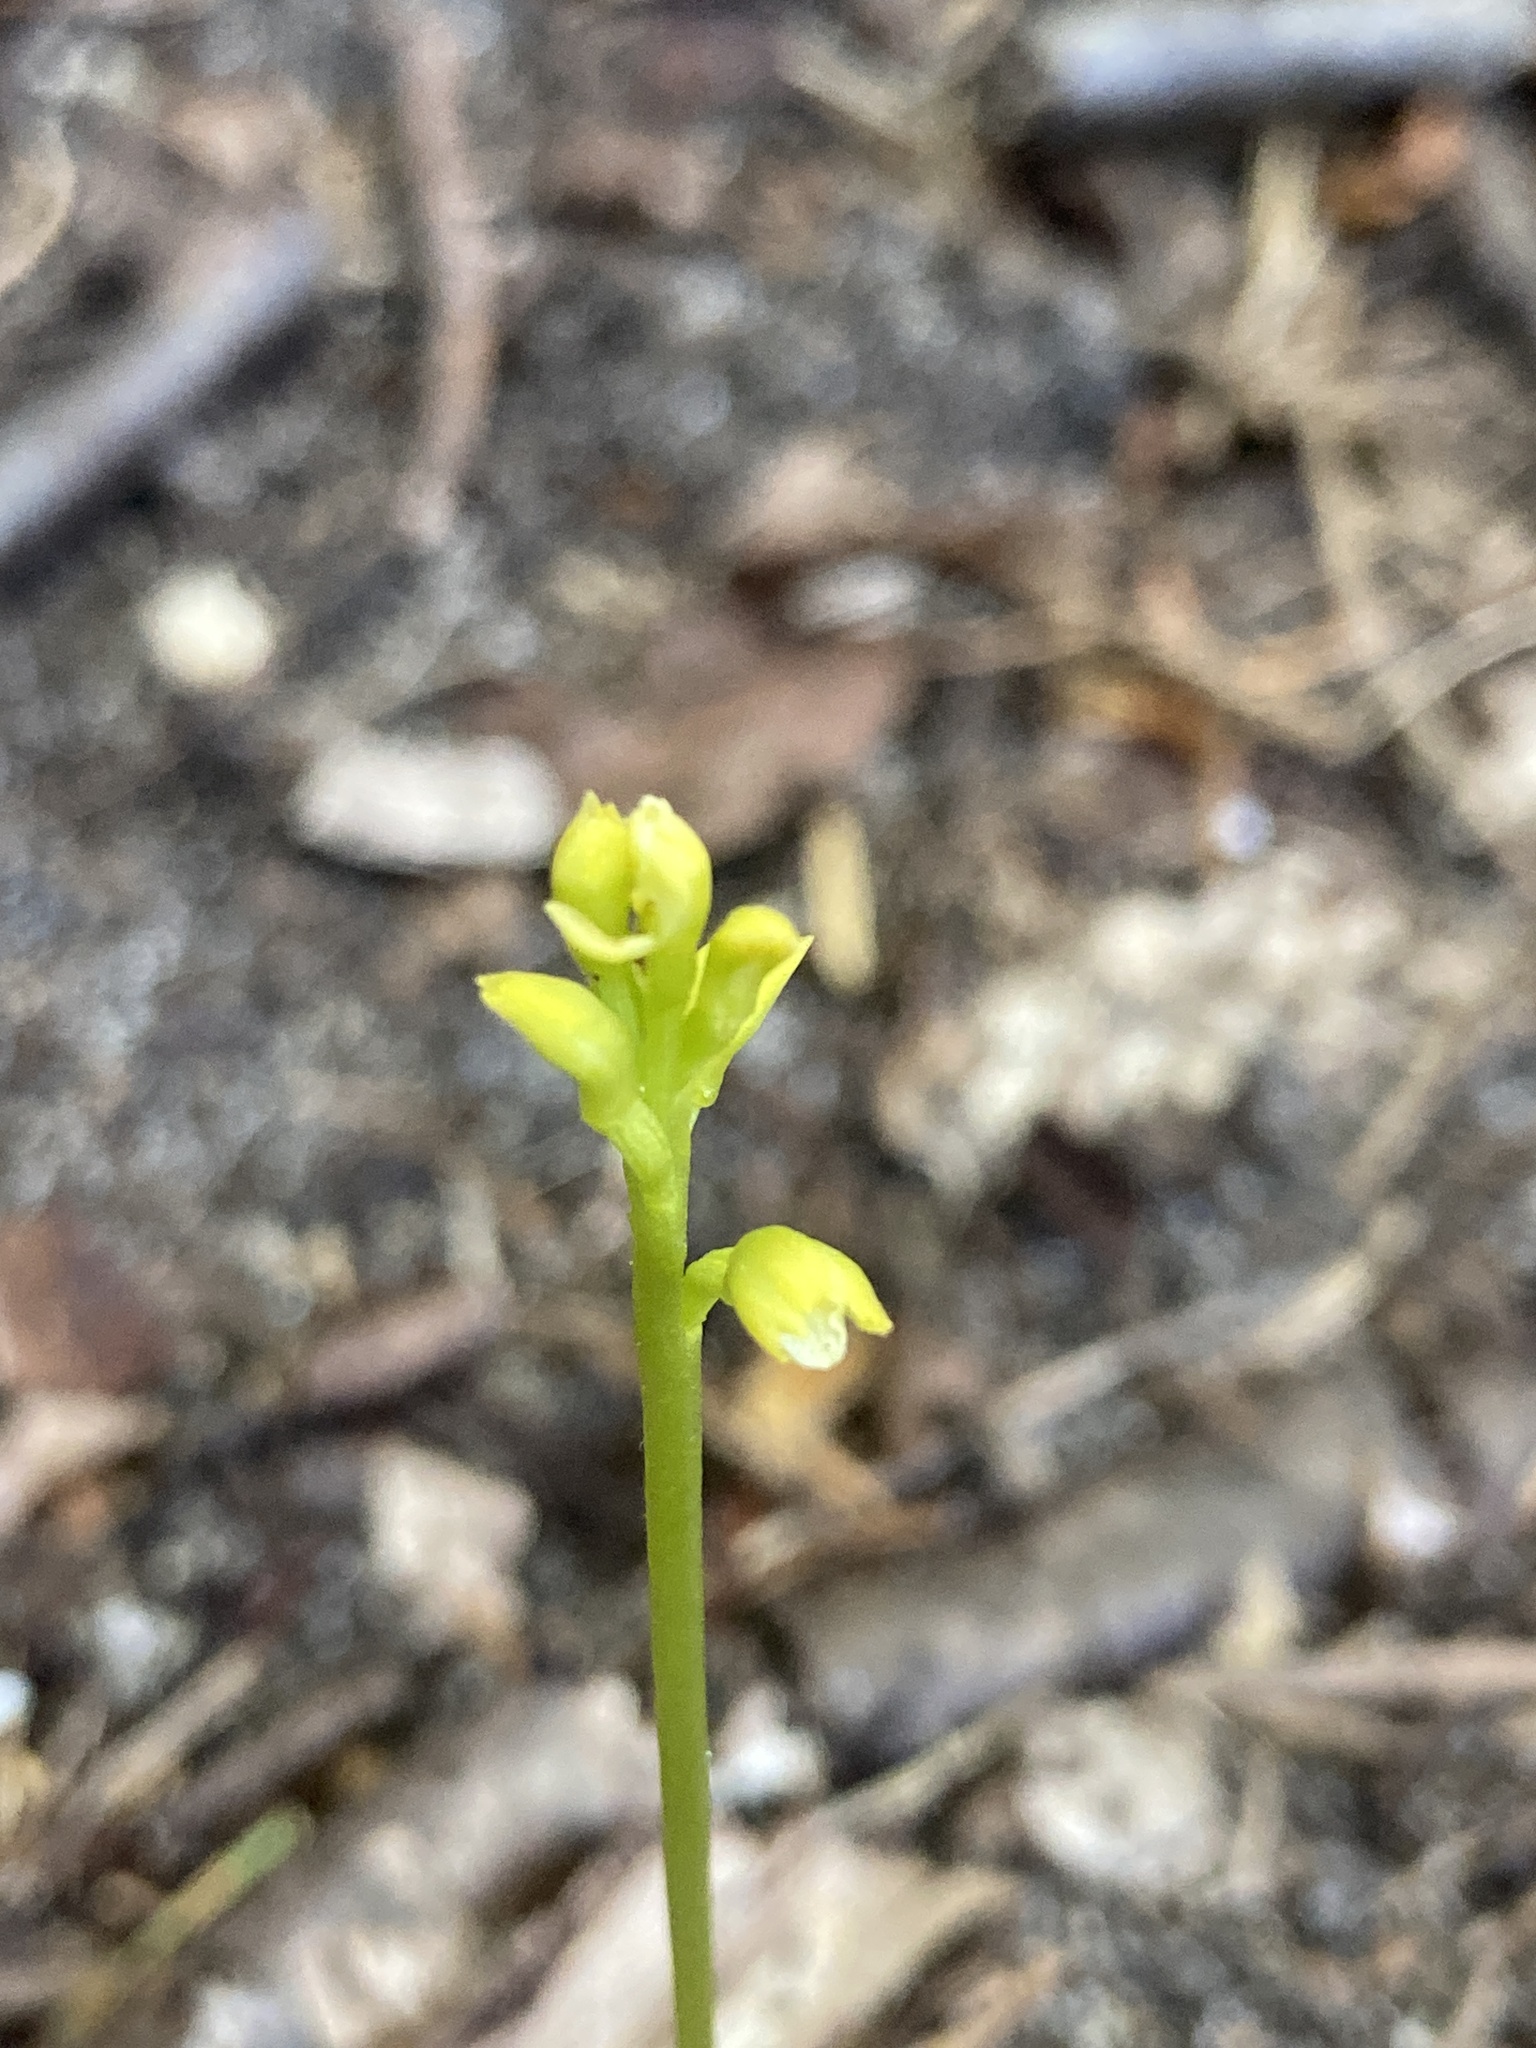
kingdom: Plantae
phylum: Tracheophyta
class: Liliopsida
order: Asparagales
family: Orchidaceae
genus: Corallorhiza
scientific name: Corallorhiza trifida
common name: Yellow coralroot
